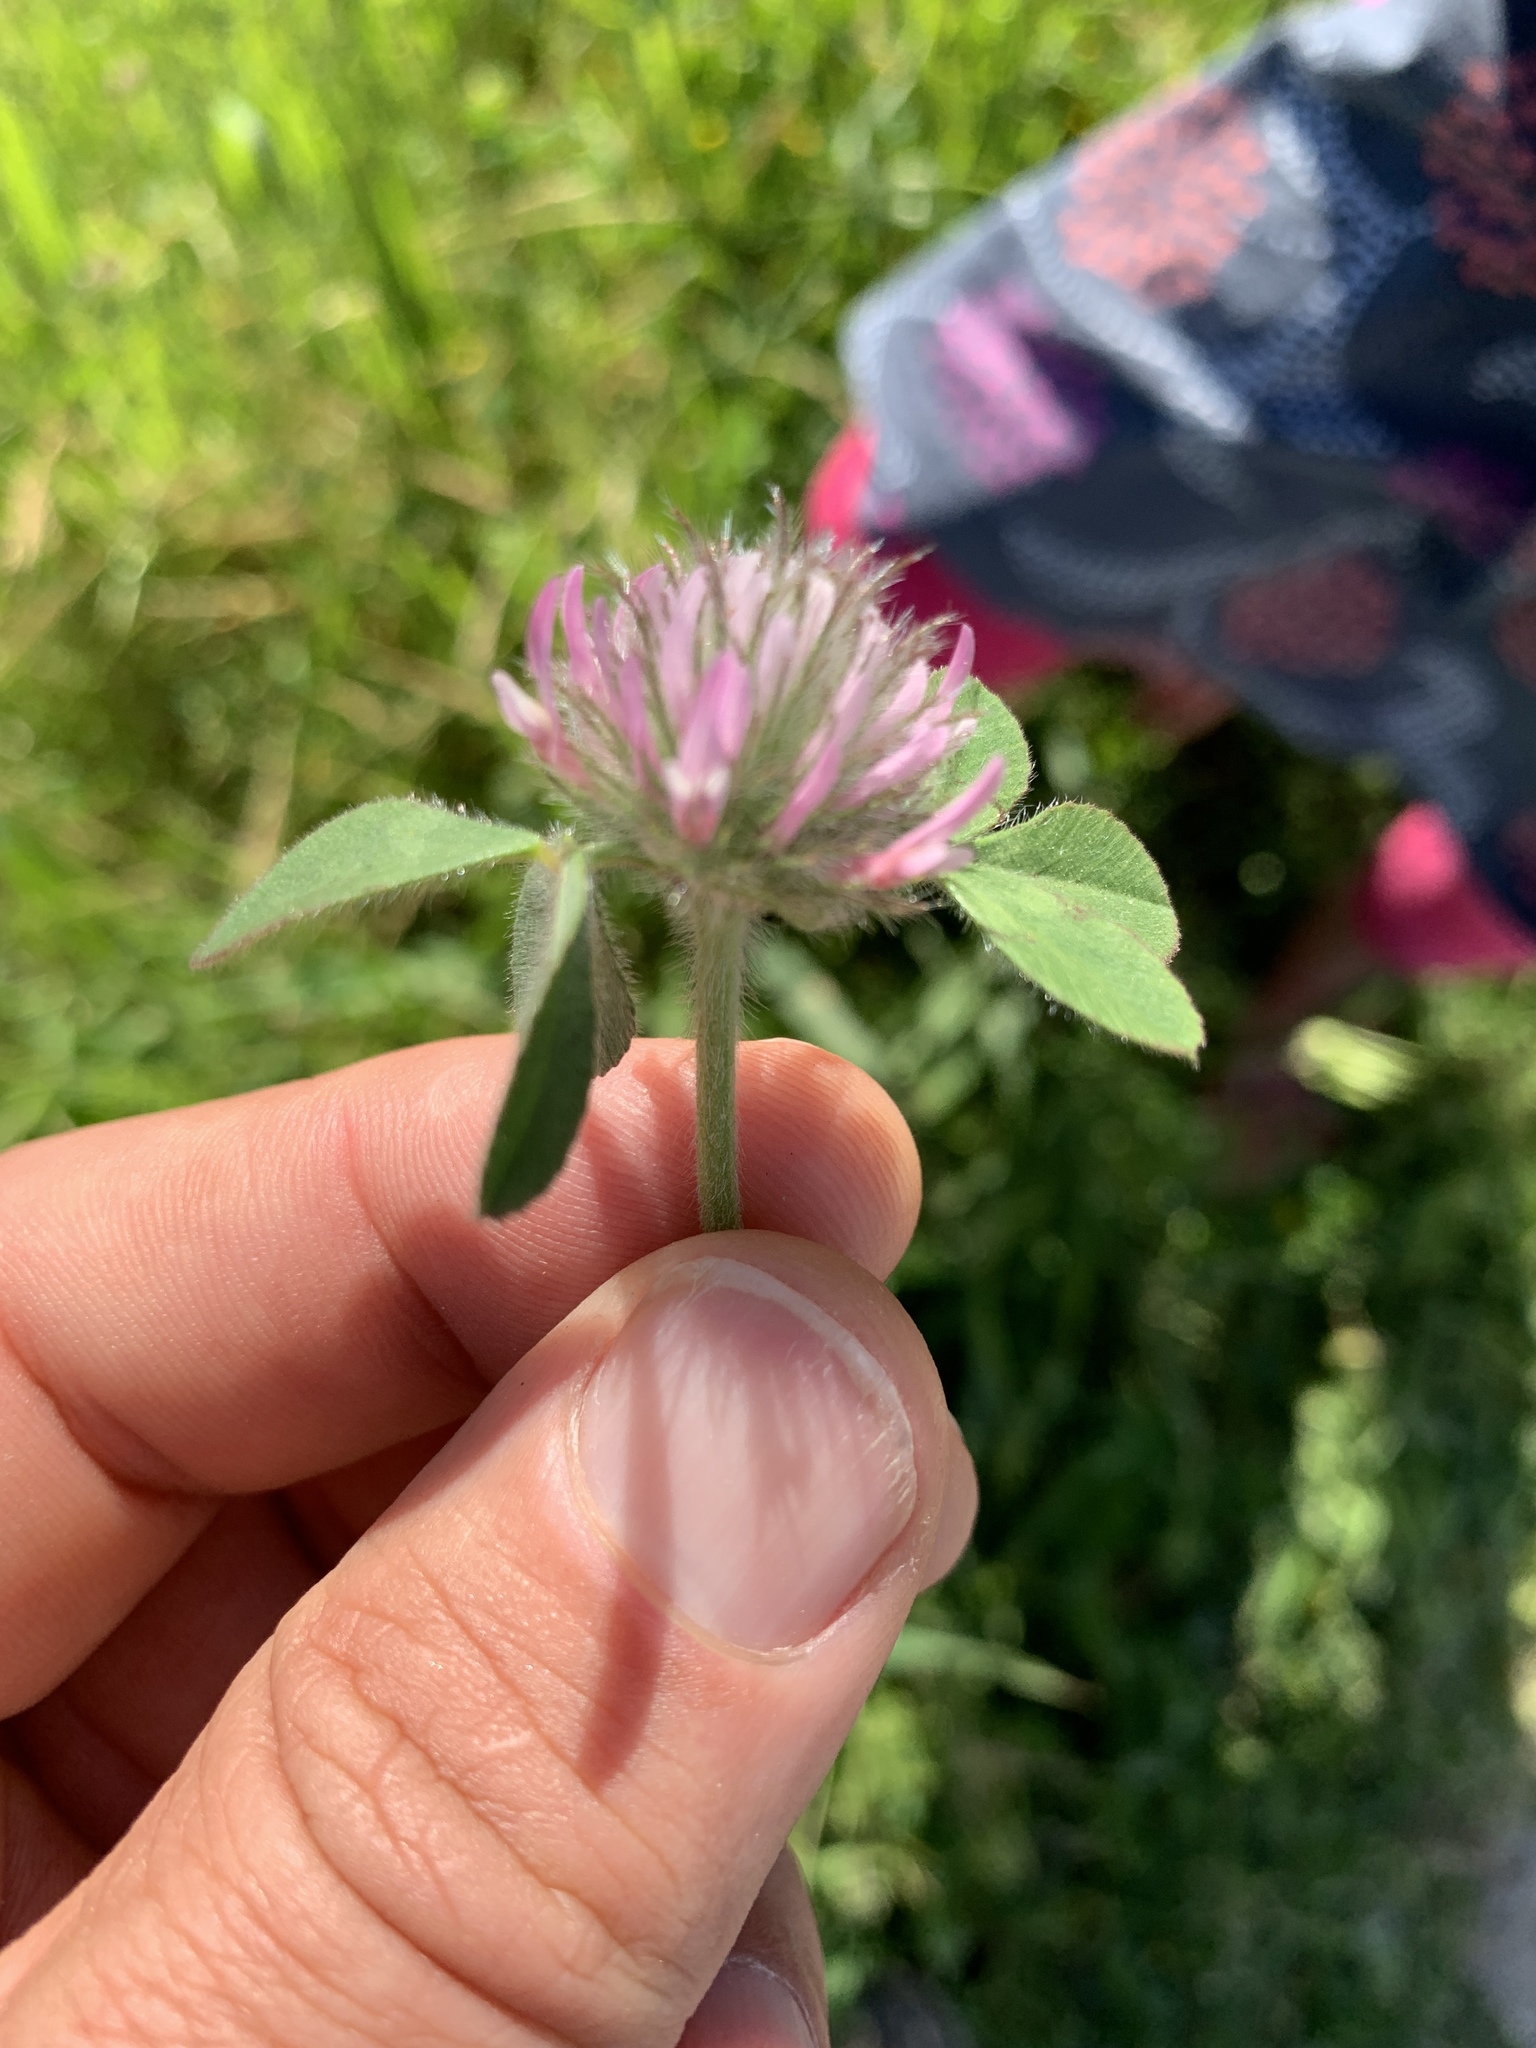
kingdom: Plantae
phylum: Tracheophyta
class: Magnoliopsida
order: Fabales
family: Fabaceae
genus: Trifolium
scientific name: Trifolium hirtum
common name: Rose clover
